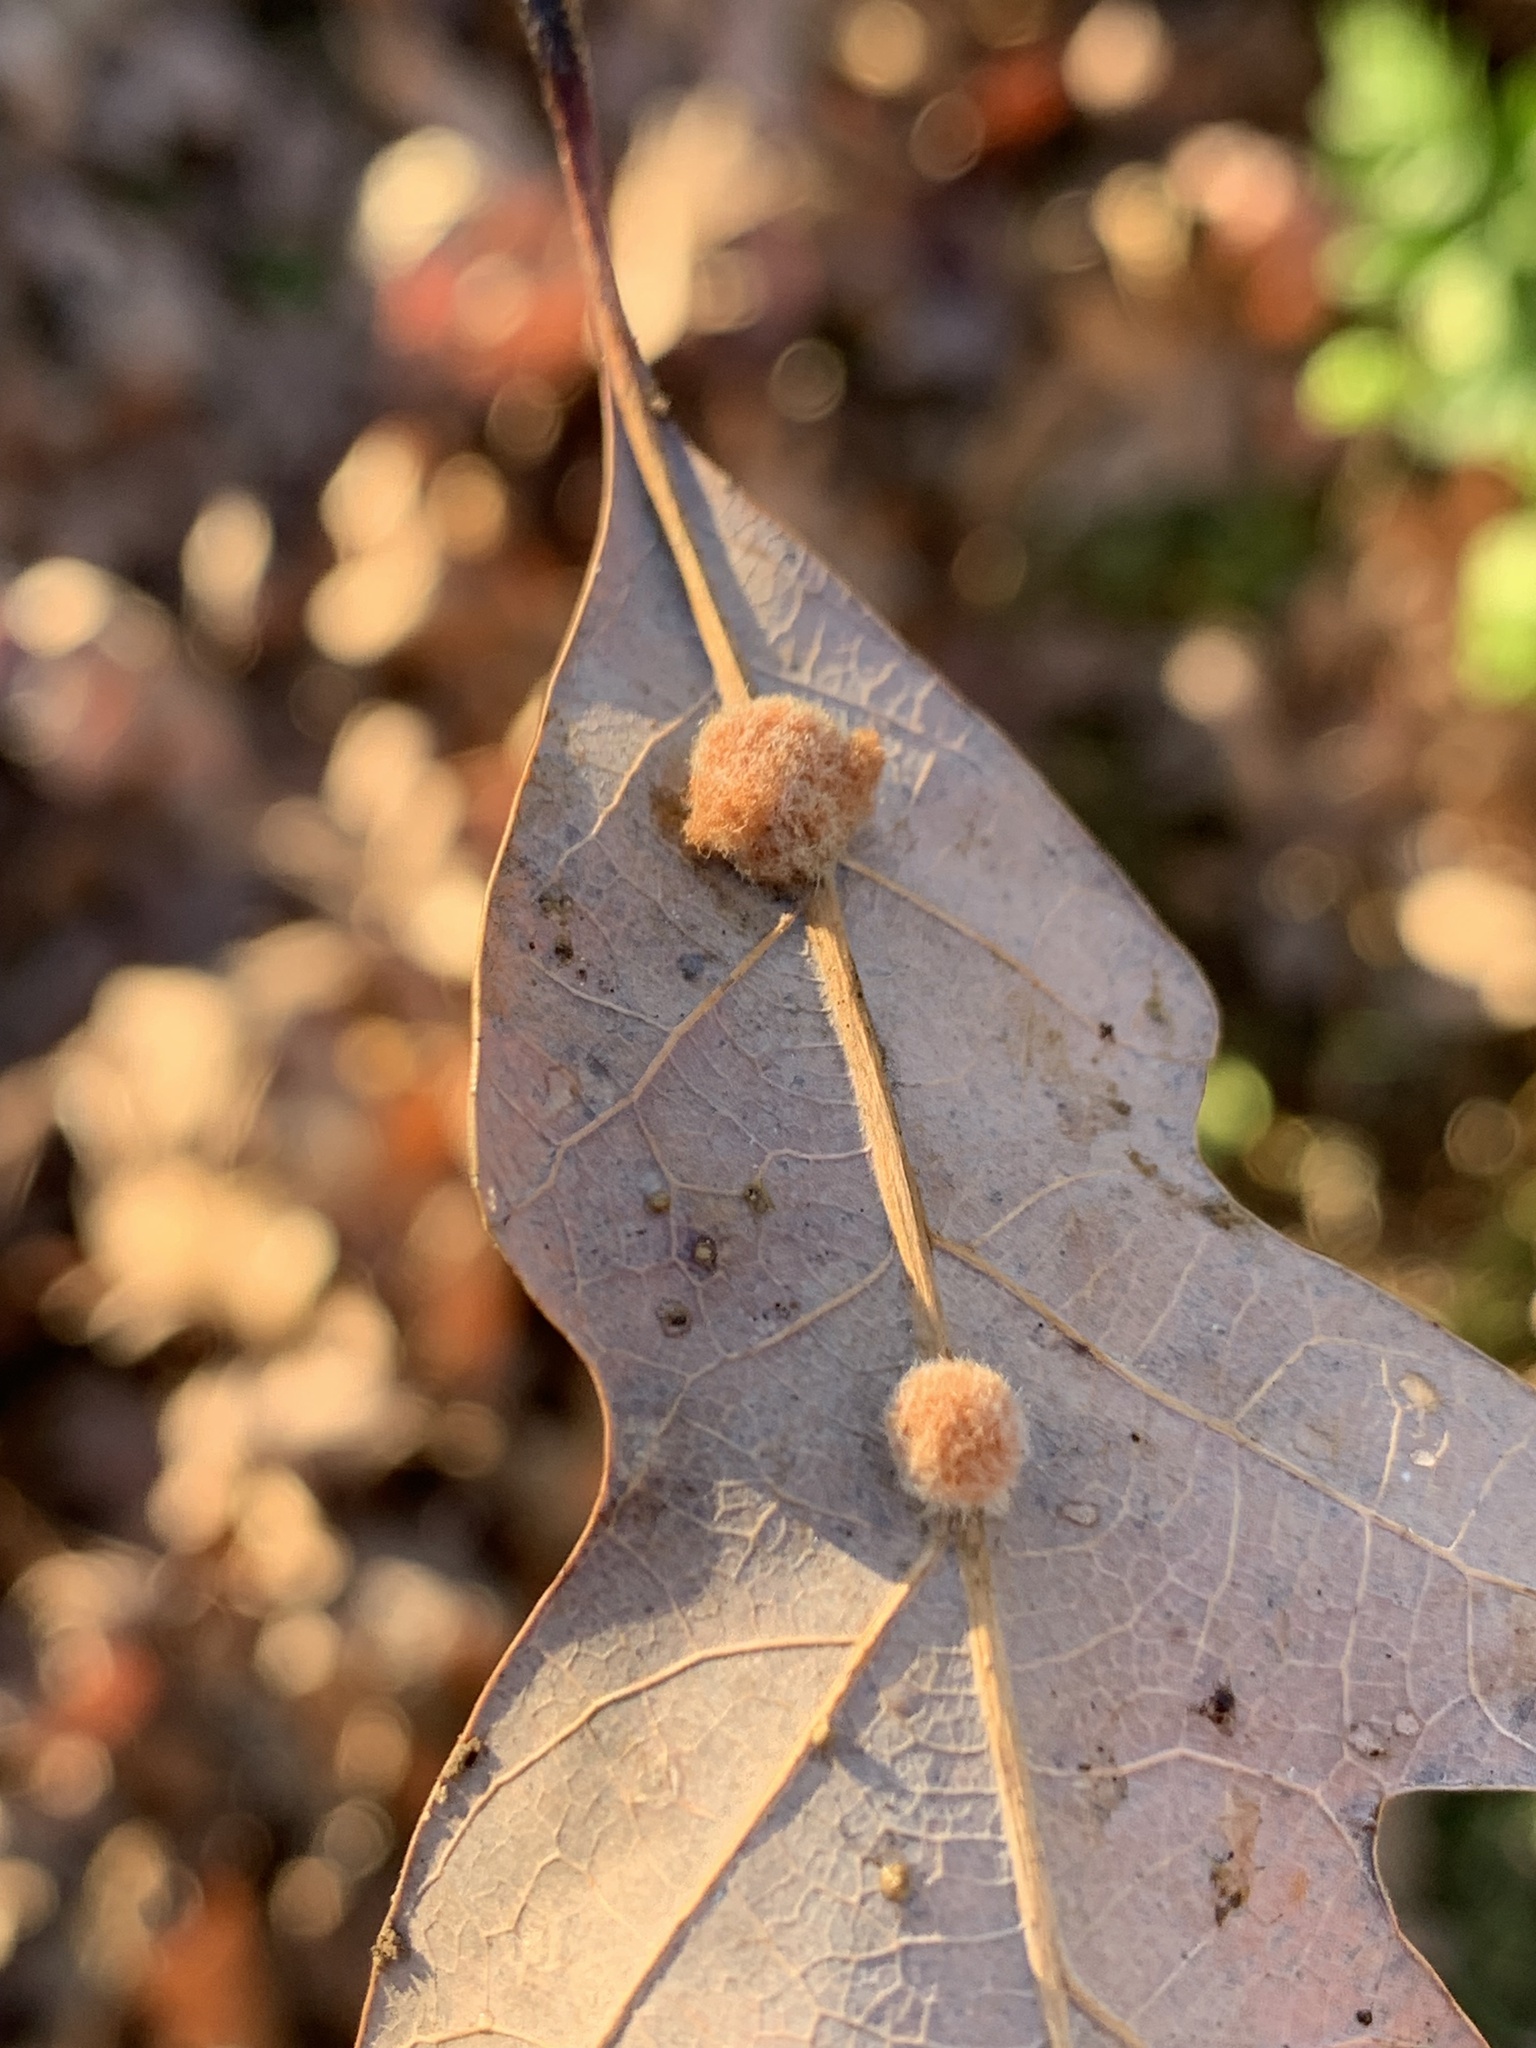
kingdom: Animalia
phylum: Arthropoda
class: Insecta
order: Hymenoptera
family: Cynipidae
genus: Andricus
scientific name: Andricus quercusflocci
